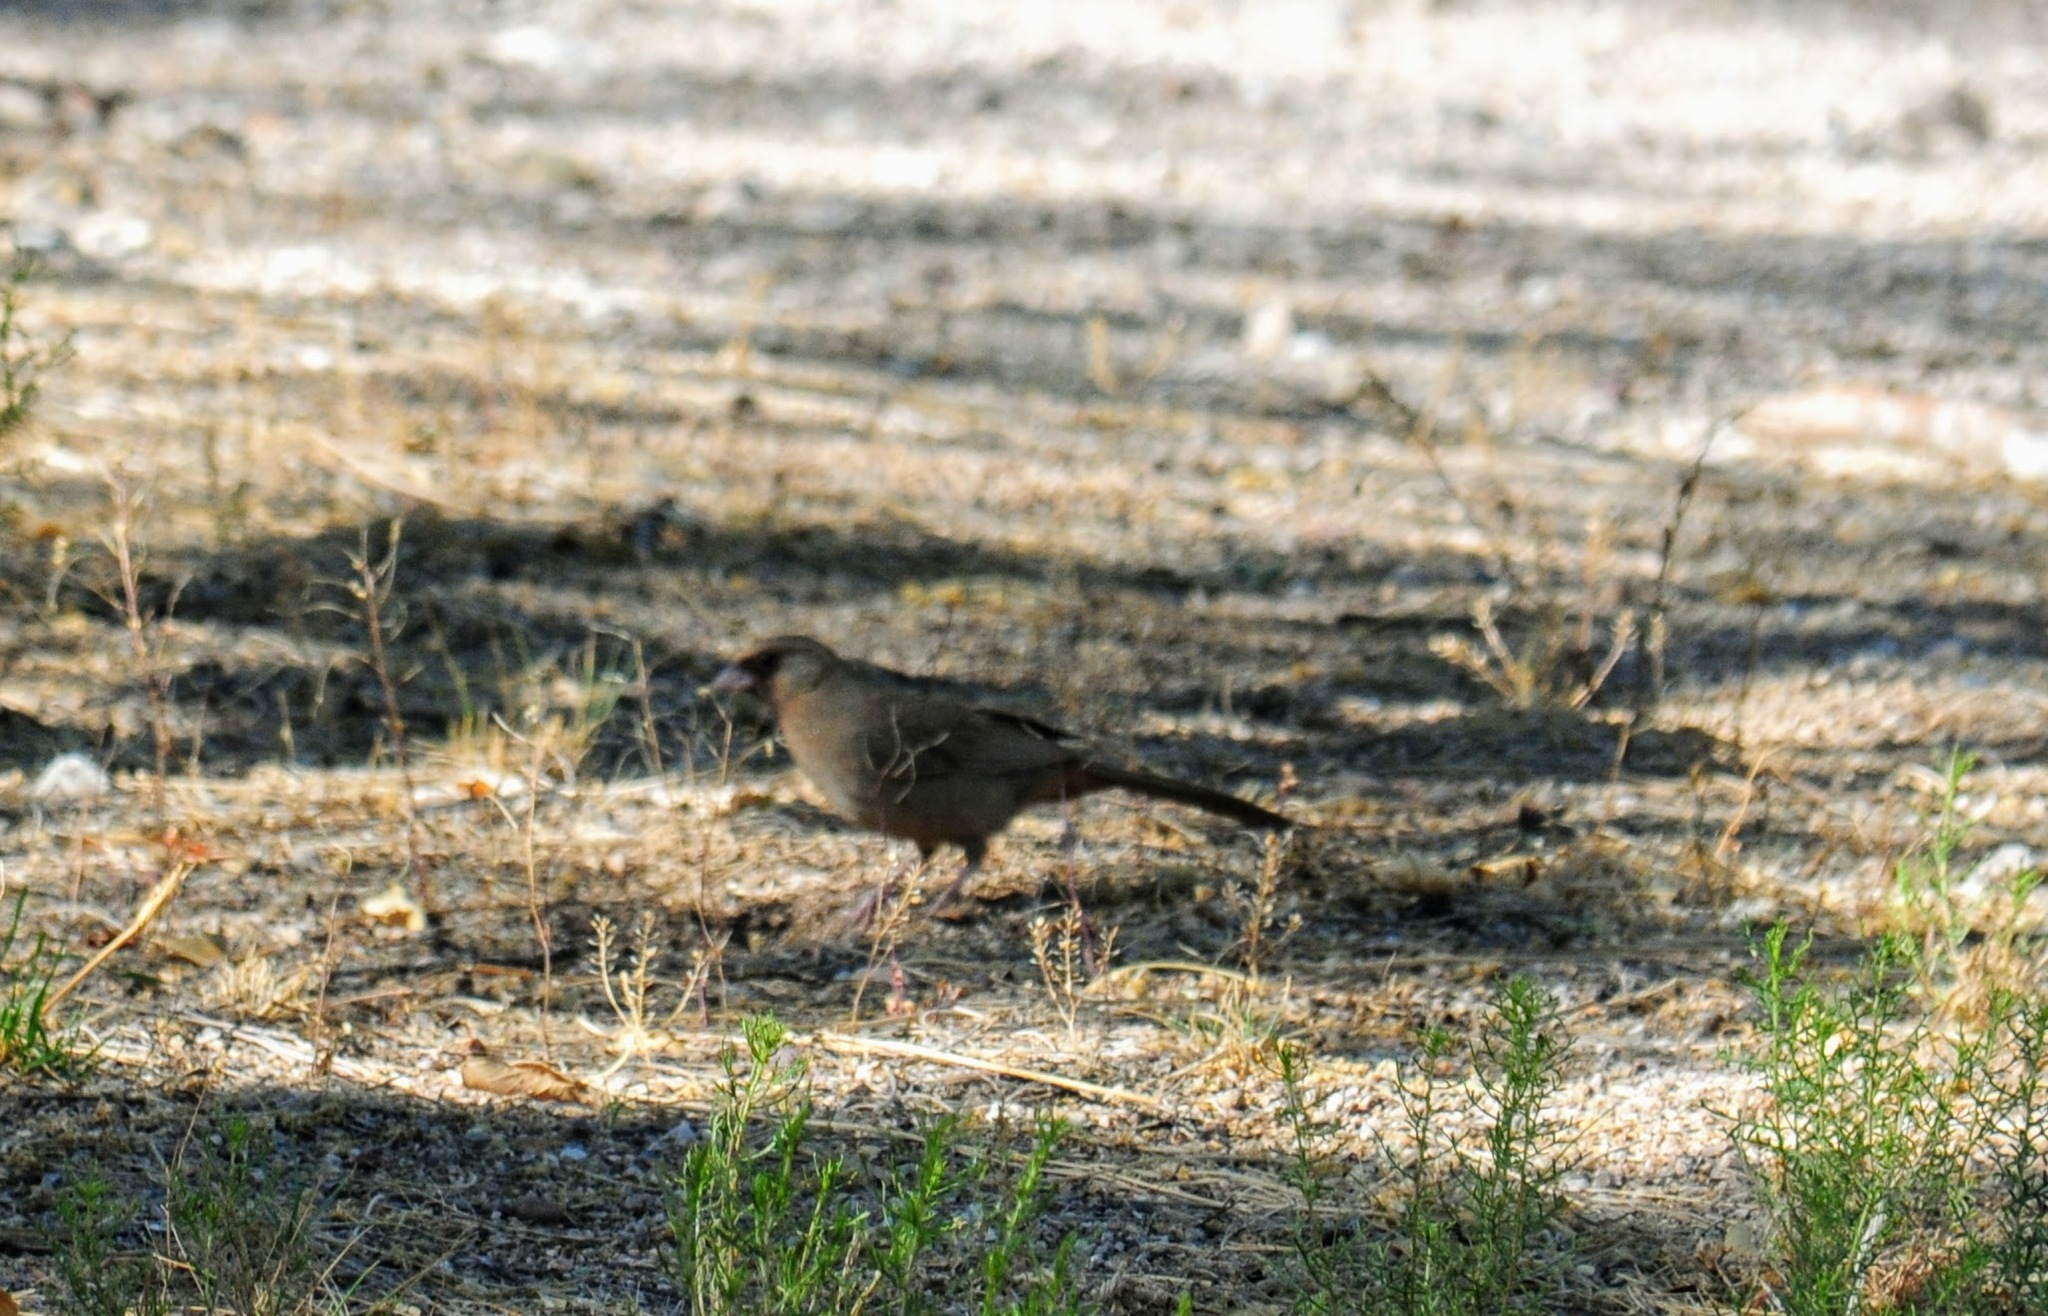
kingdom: Animalia
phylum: Chordata
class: Aves
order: Passeriformes
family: Passerellidae
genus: Melozone
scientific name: Melozone aberti
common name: Abert's towhee
